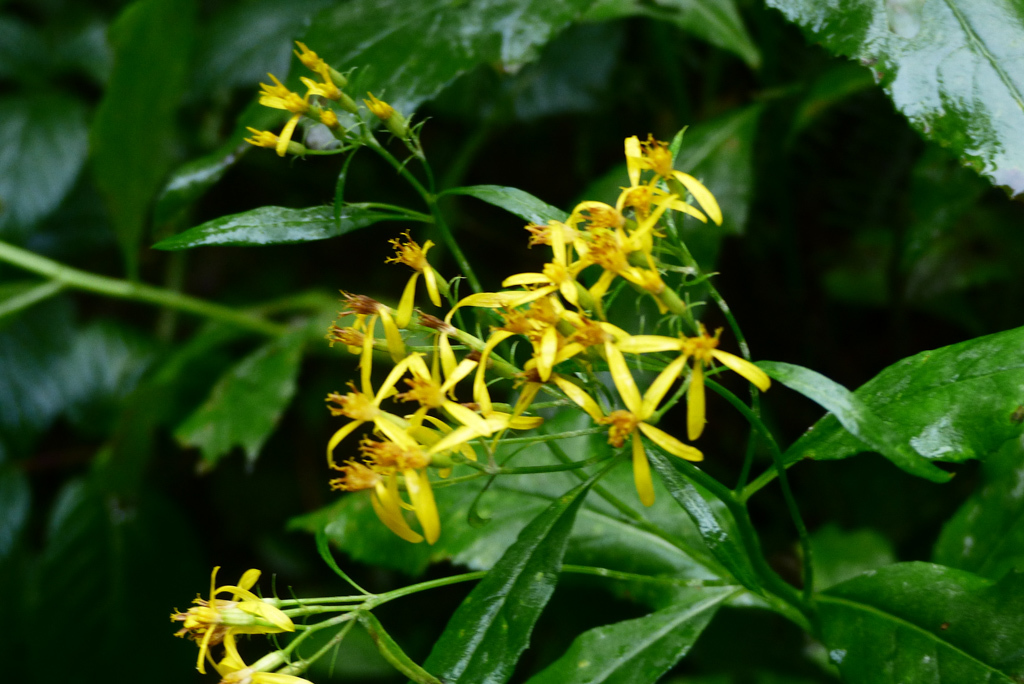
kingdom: Plantae
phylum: Tracheophyta
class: Magnoliopsida
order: Asterales
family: Asteraceae
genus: Senecio
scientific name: Senecio ovatus
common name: Wood ragwort
